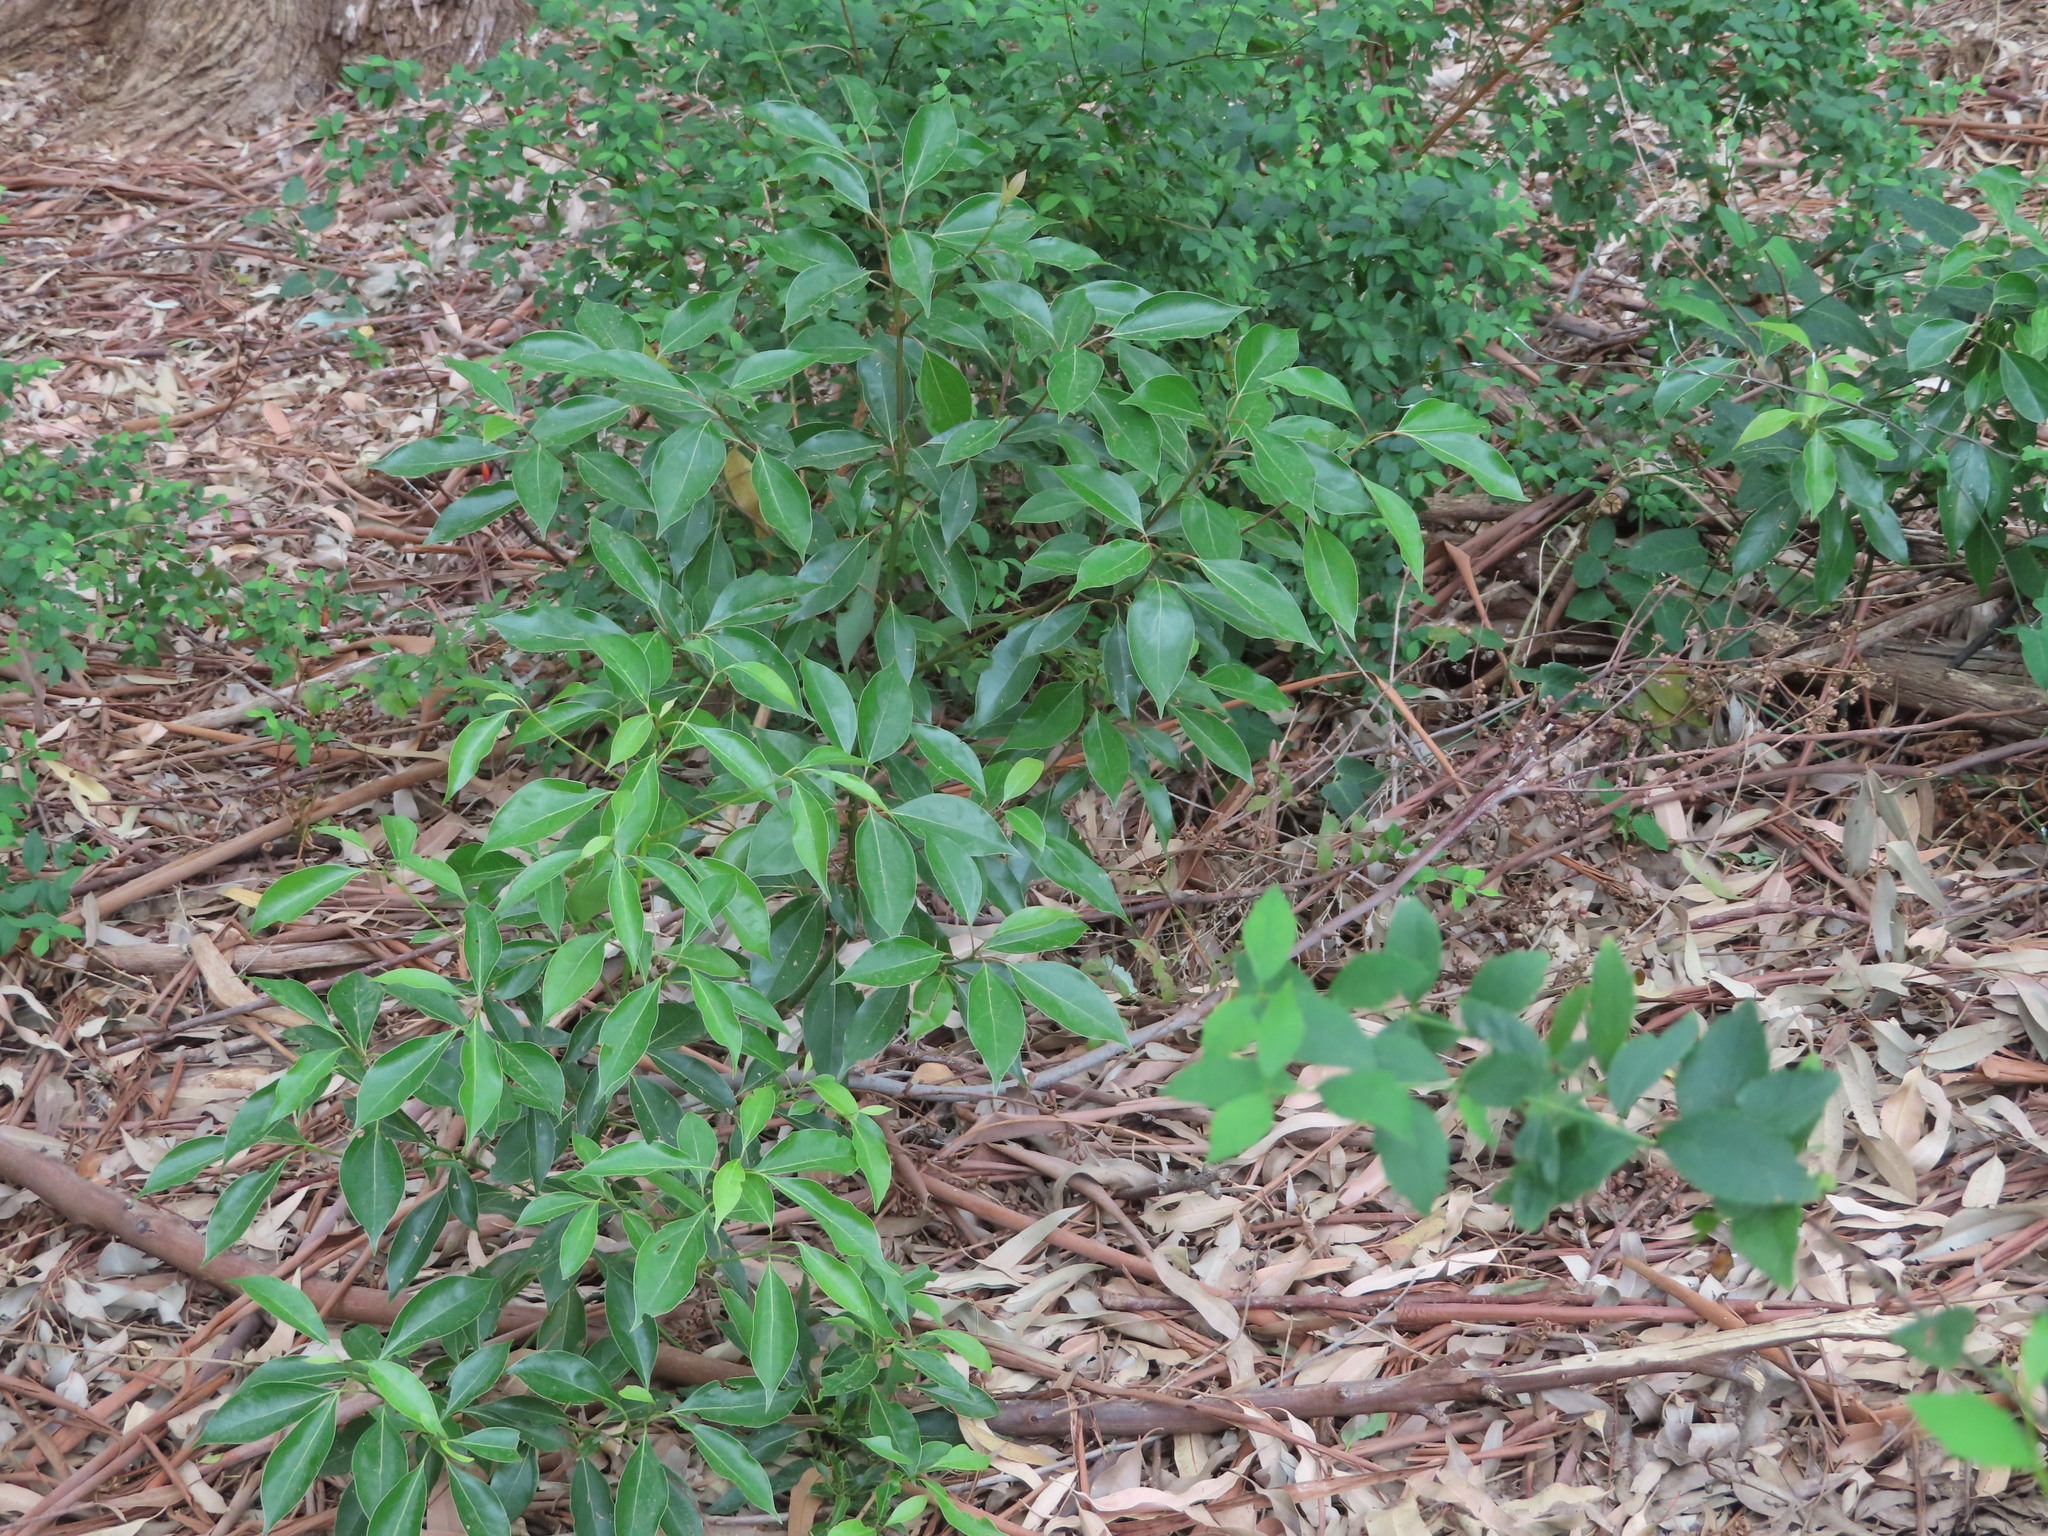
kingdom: Plantae
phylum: Tracheophyta
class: Magnoliopsida
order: Laurales
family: Lauraceae
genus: Cinnamomum
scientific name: Cinnamomum camphora
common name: Camphortree
